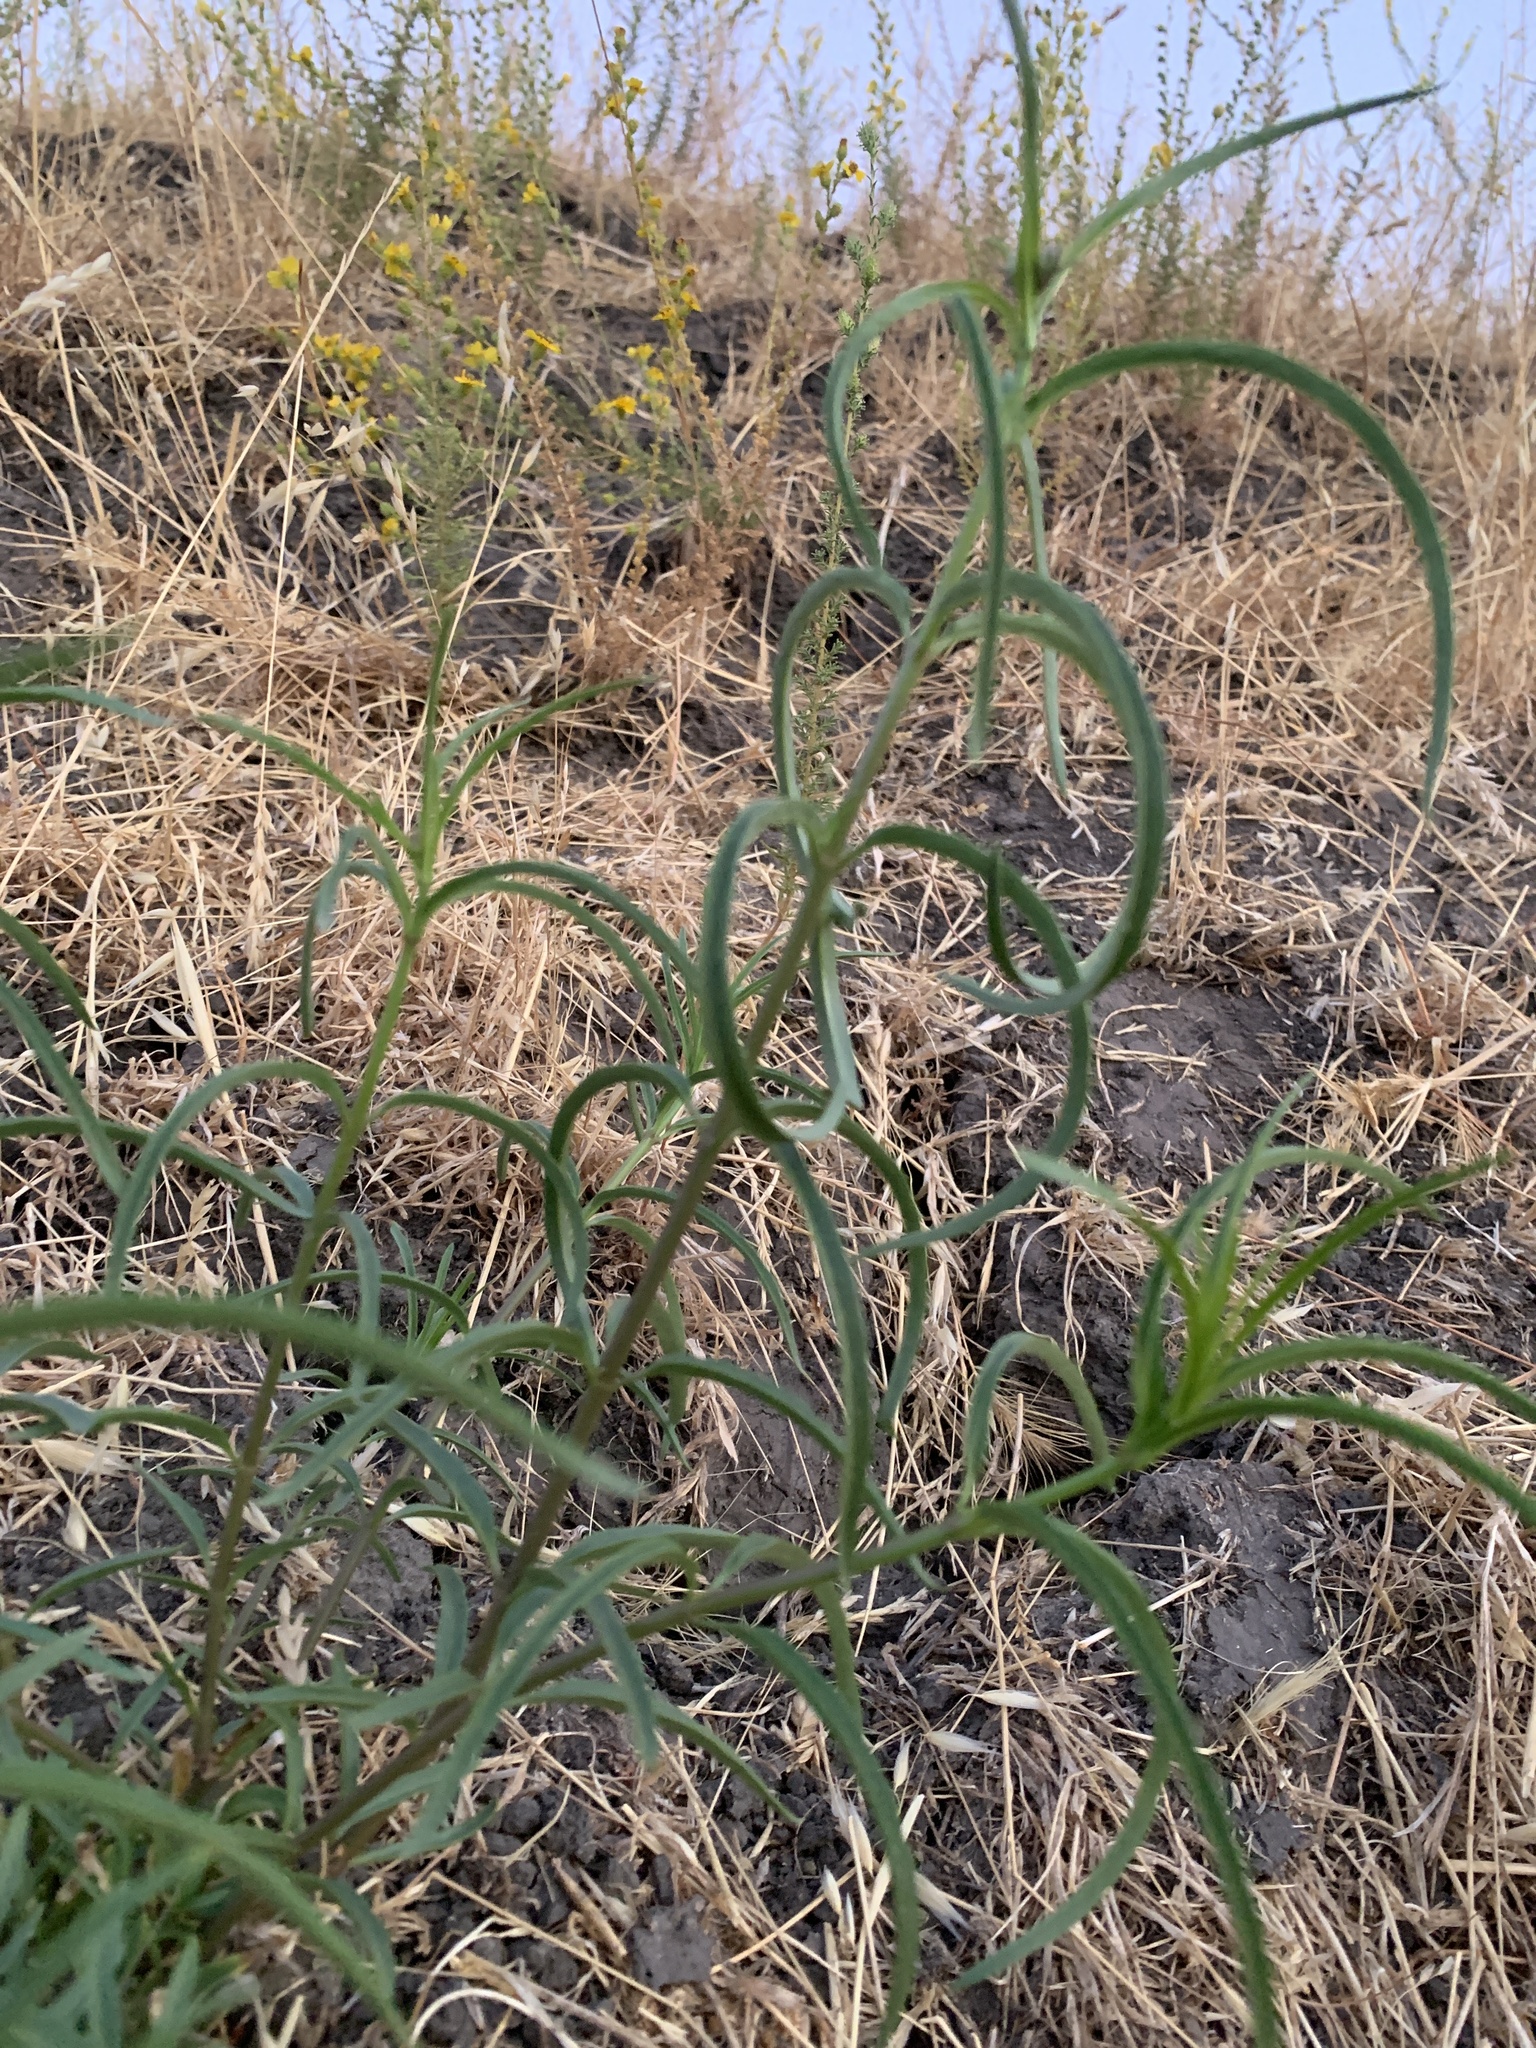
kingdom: Plantae
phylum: Tracheophyta
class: Magnoliopsida
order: Gentianales
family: Apocynaceae
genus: Asclepias
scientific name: Asclepias fascicularis
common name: Mexican milkweed
